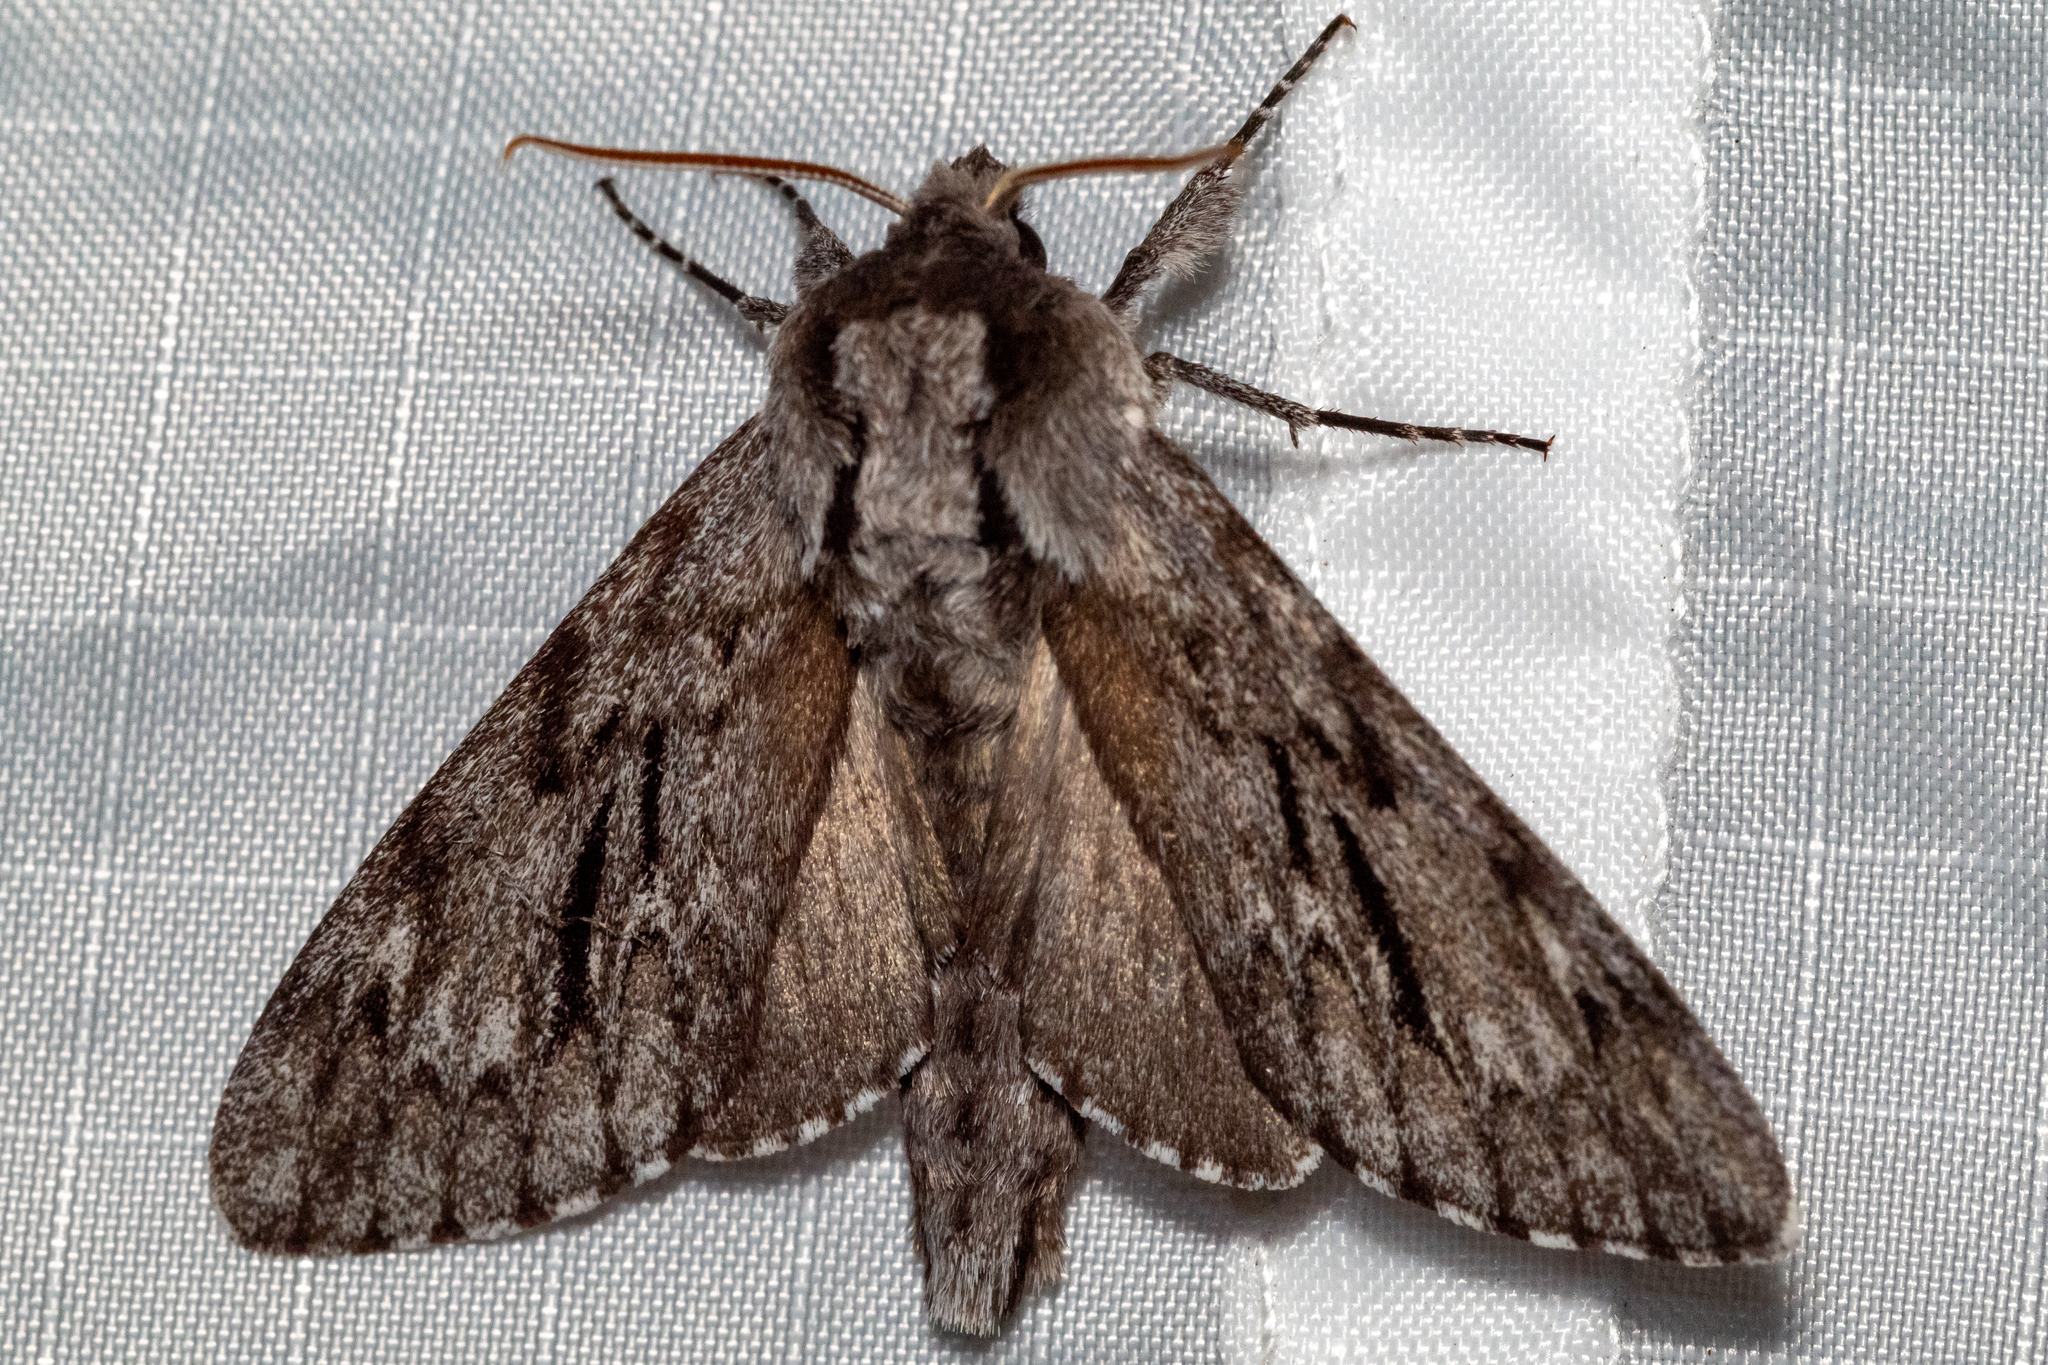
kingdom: Animalia
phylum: Arthropoda
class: Insecta
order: Lepidoptera
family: Sphingidae
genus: Lapara
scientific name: Lapara bombycoides
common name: Northern pine sphinx
